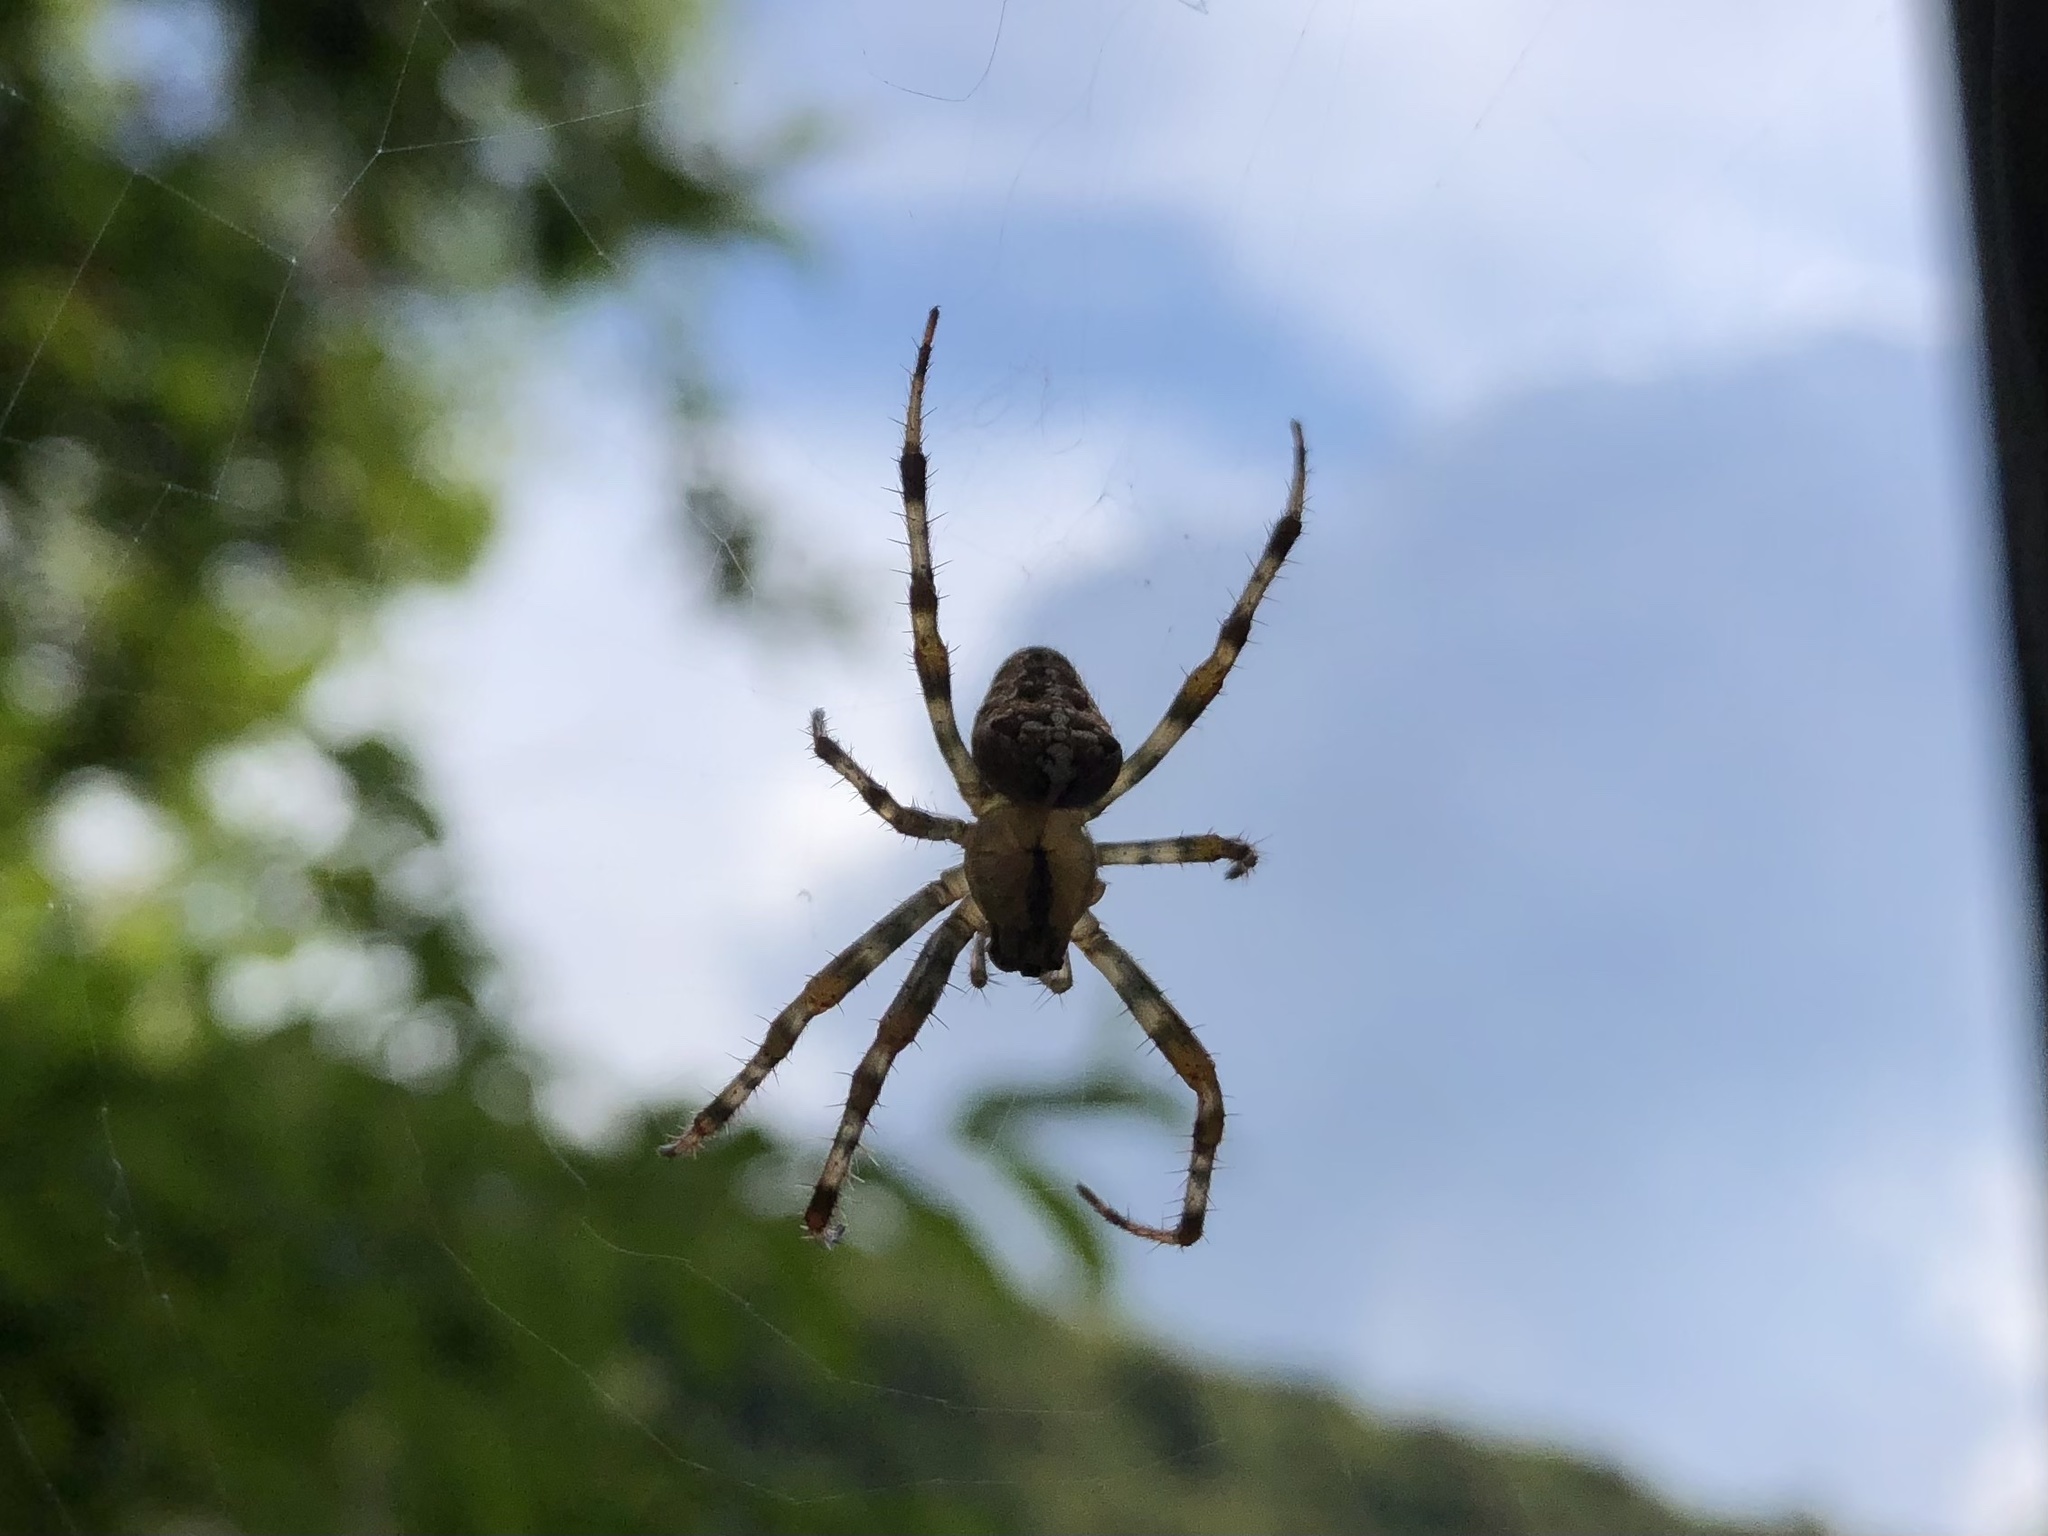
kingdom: Animalia
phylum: Arthropoda
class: Arachnida
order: Araneae
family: Araneidae
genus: Araneus
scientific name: Araneus diadematus
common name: Cross orbweaver
